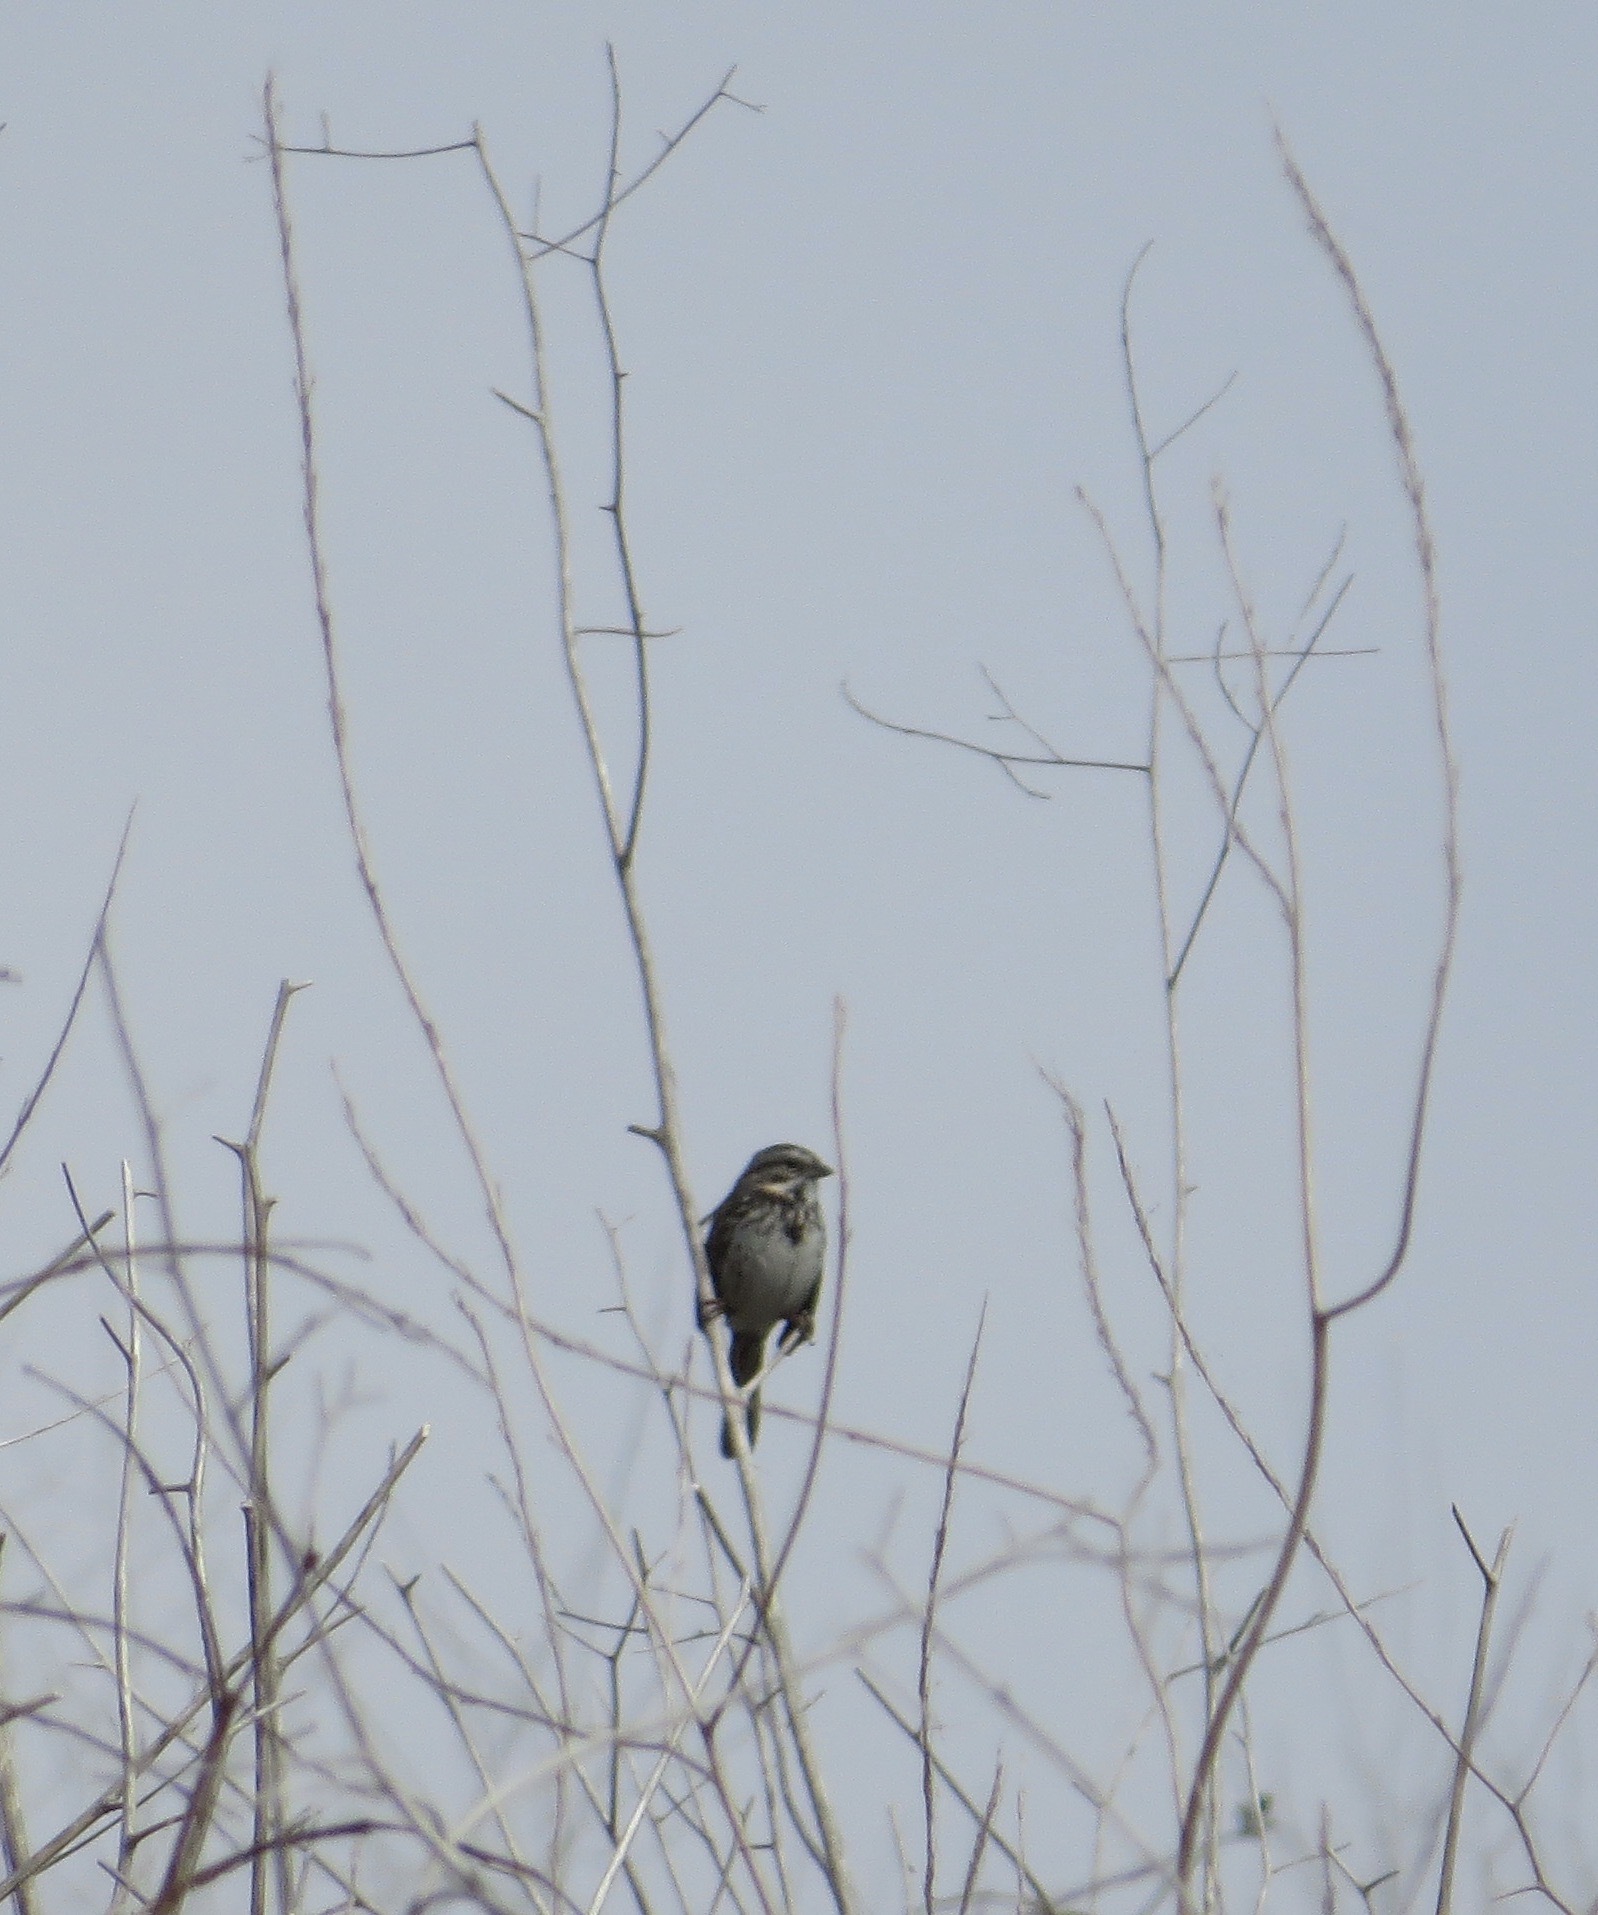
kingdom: Animalia
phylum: Chordata
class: Aves
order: Passeriformes
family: Passerellidae
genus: Melospiza
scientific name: Melospiza melodia
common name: Song sparrow
